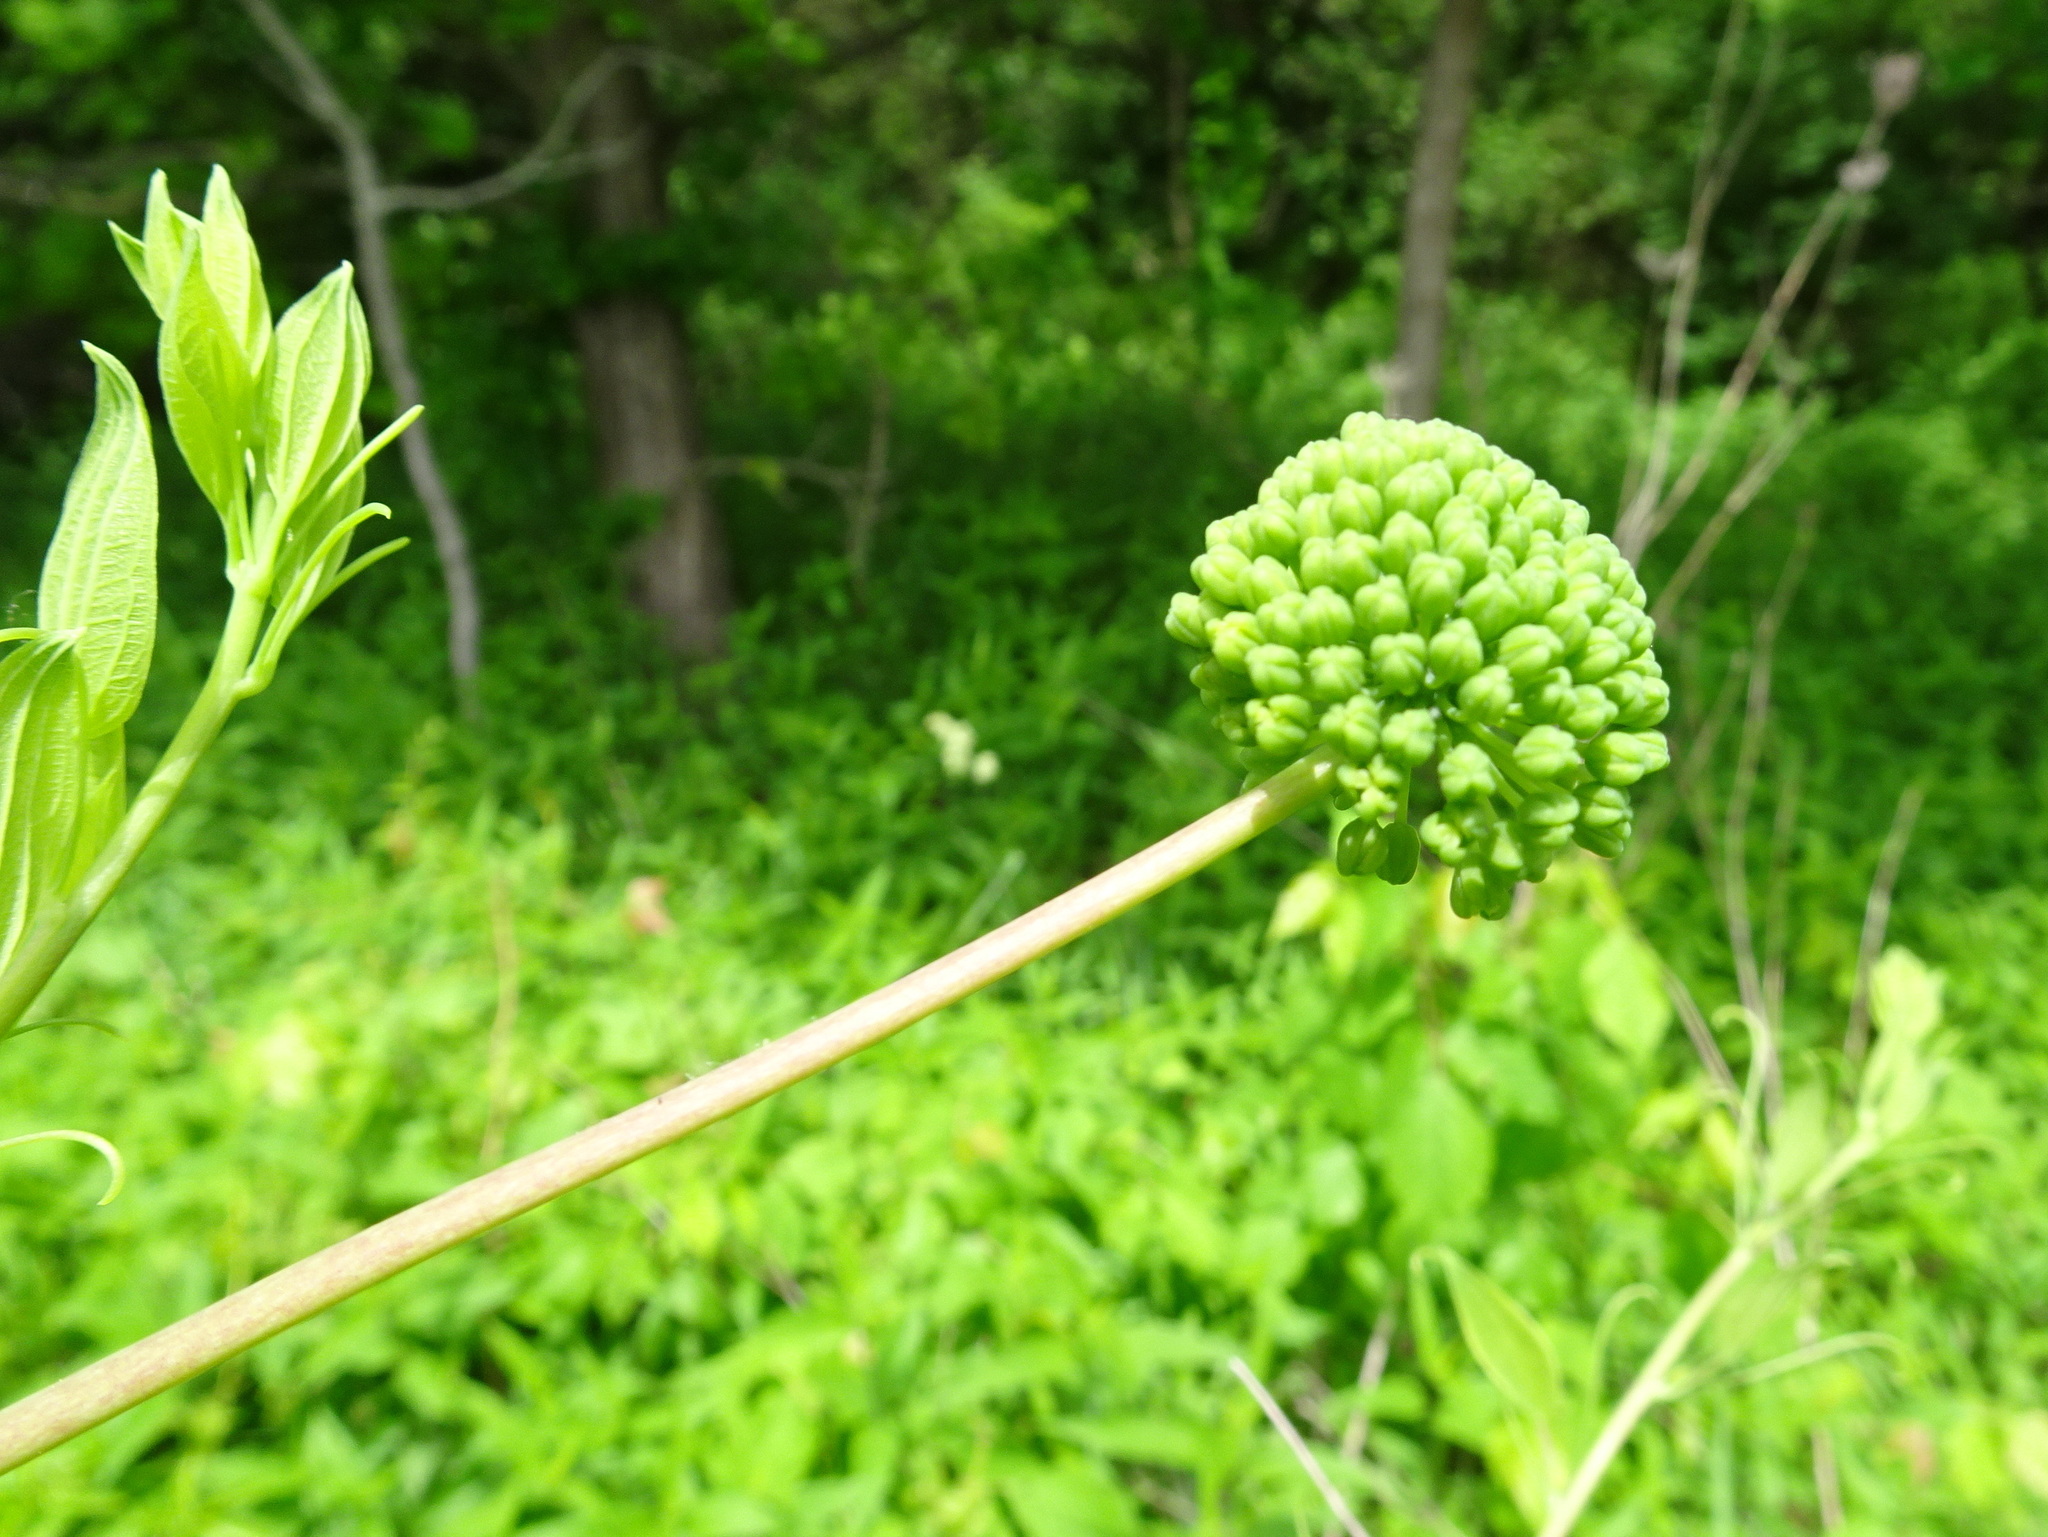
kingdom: Plantae
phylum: Tracheophyta
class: Liliopsida
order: Liliales
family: Smilacaceae
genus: Smilax
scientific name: Smilax lasioneura
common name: Blue ridge carrionflower
